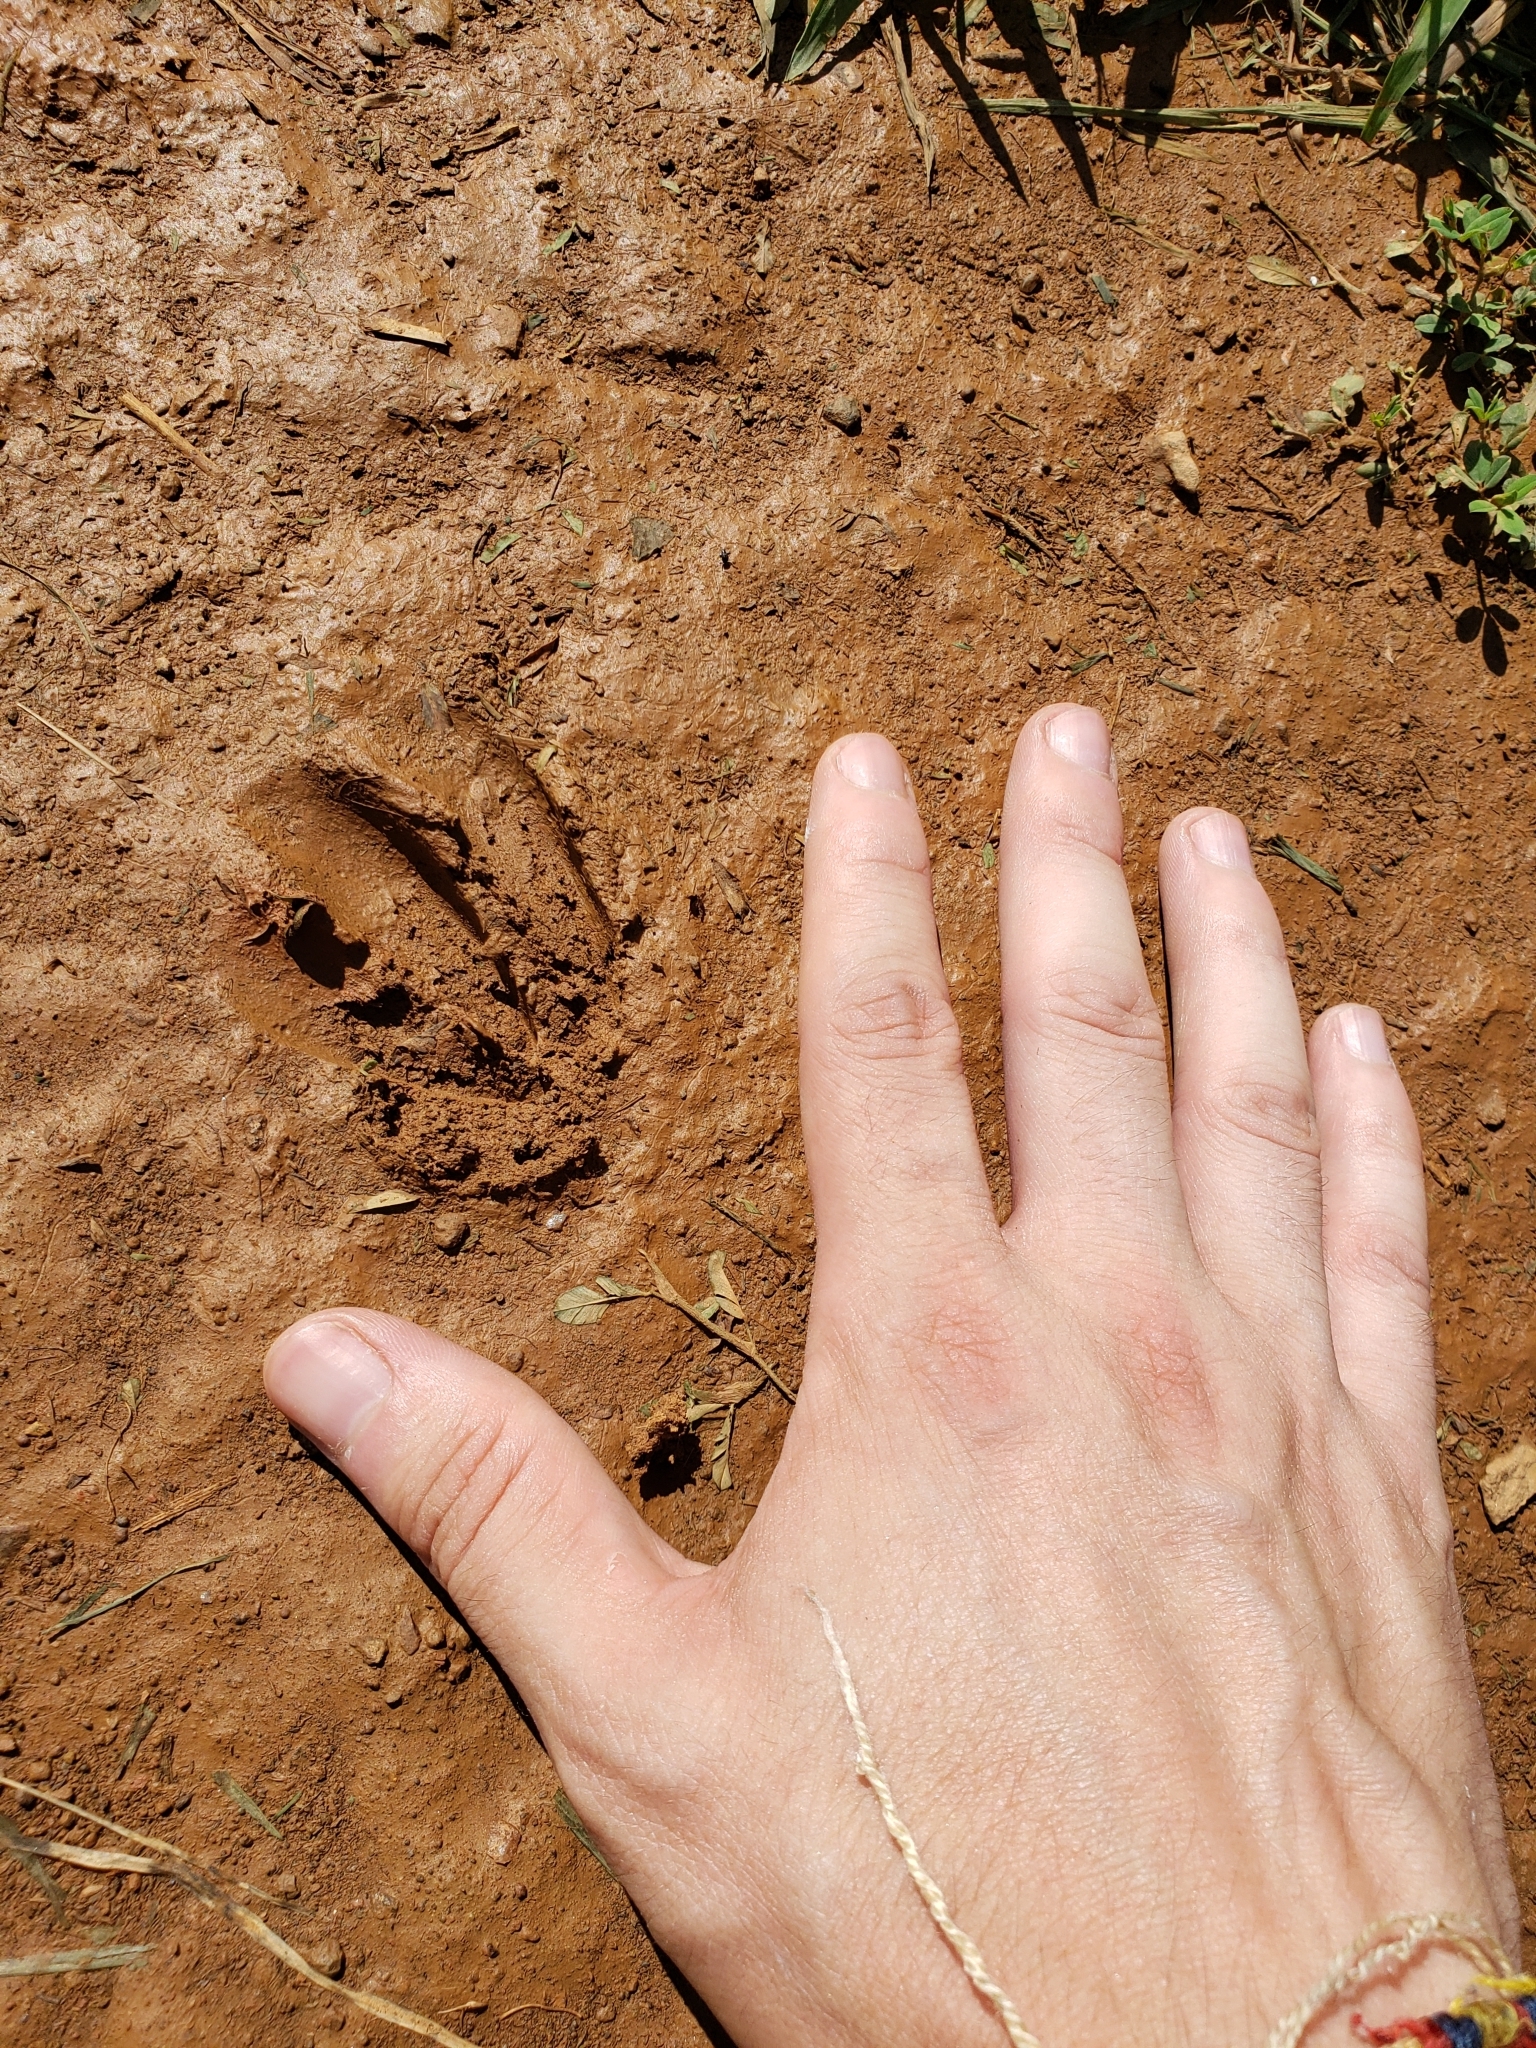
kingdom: Animalia
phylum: Chordata
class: Mammalia
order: Artiodactyla
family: Cervidae
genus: Odocoileus
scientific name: Odocoileus virginianus
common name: White-tailed deer
